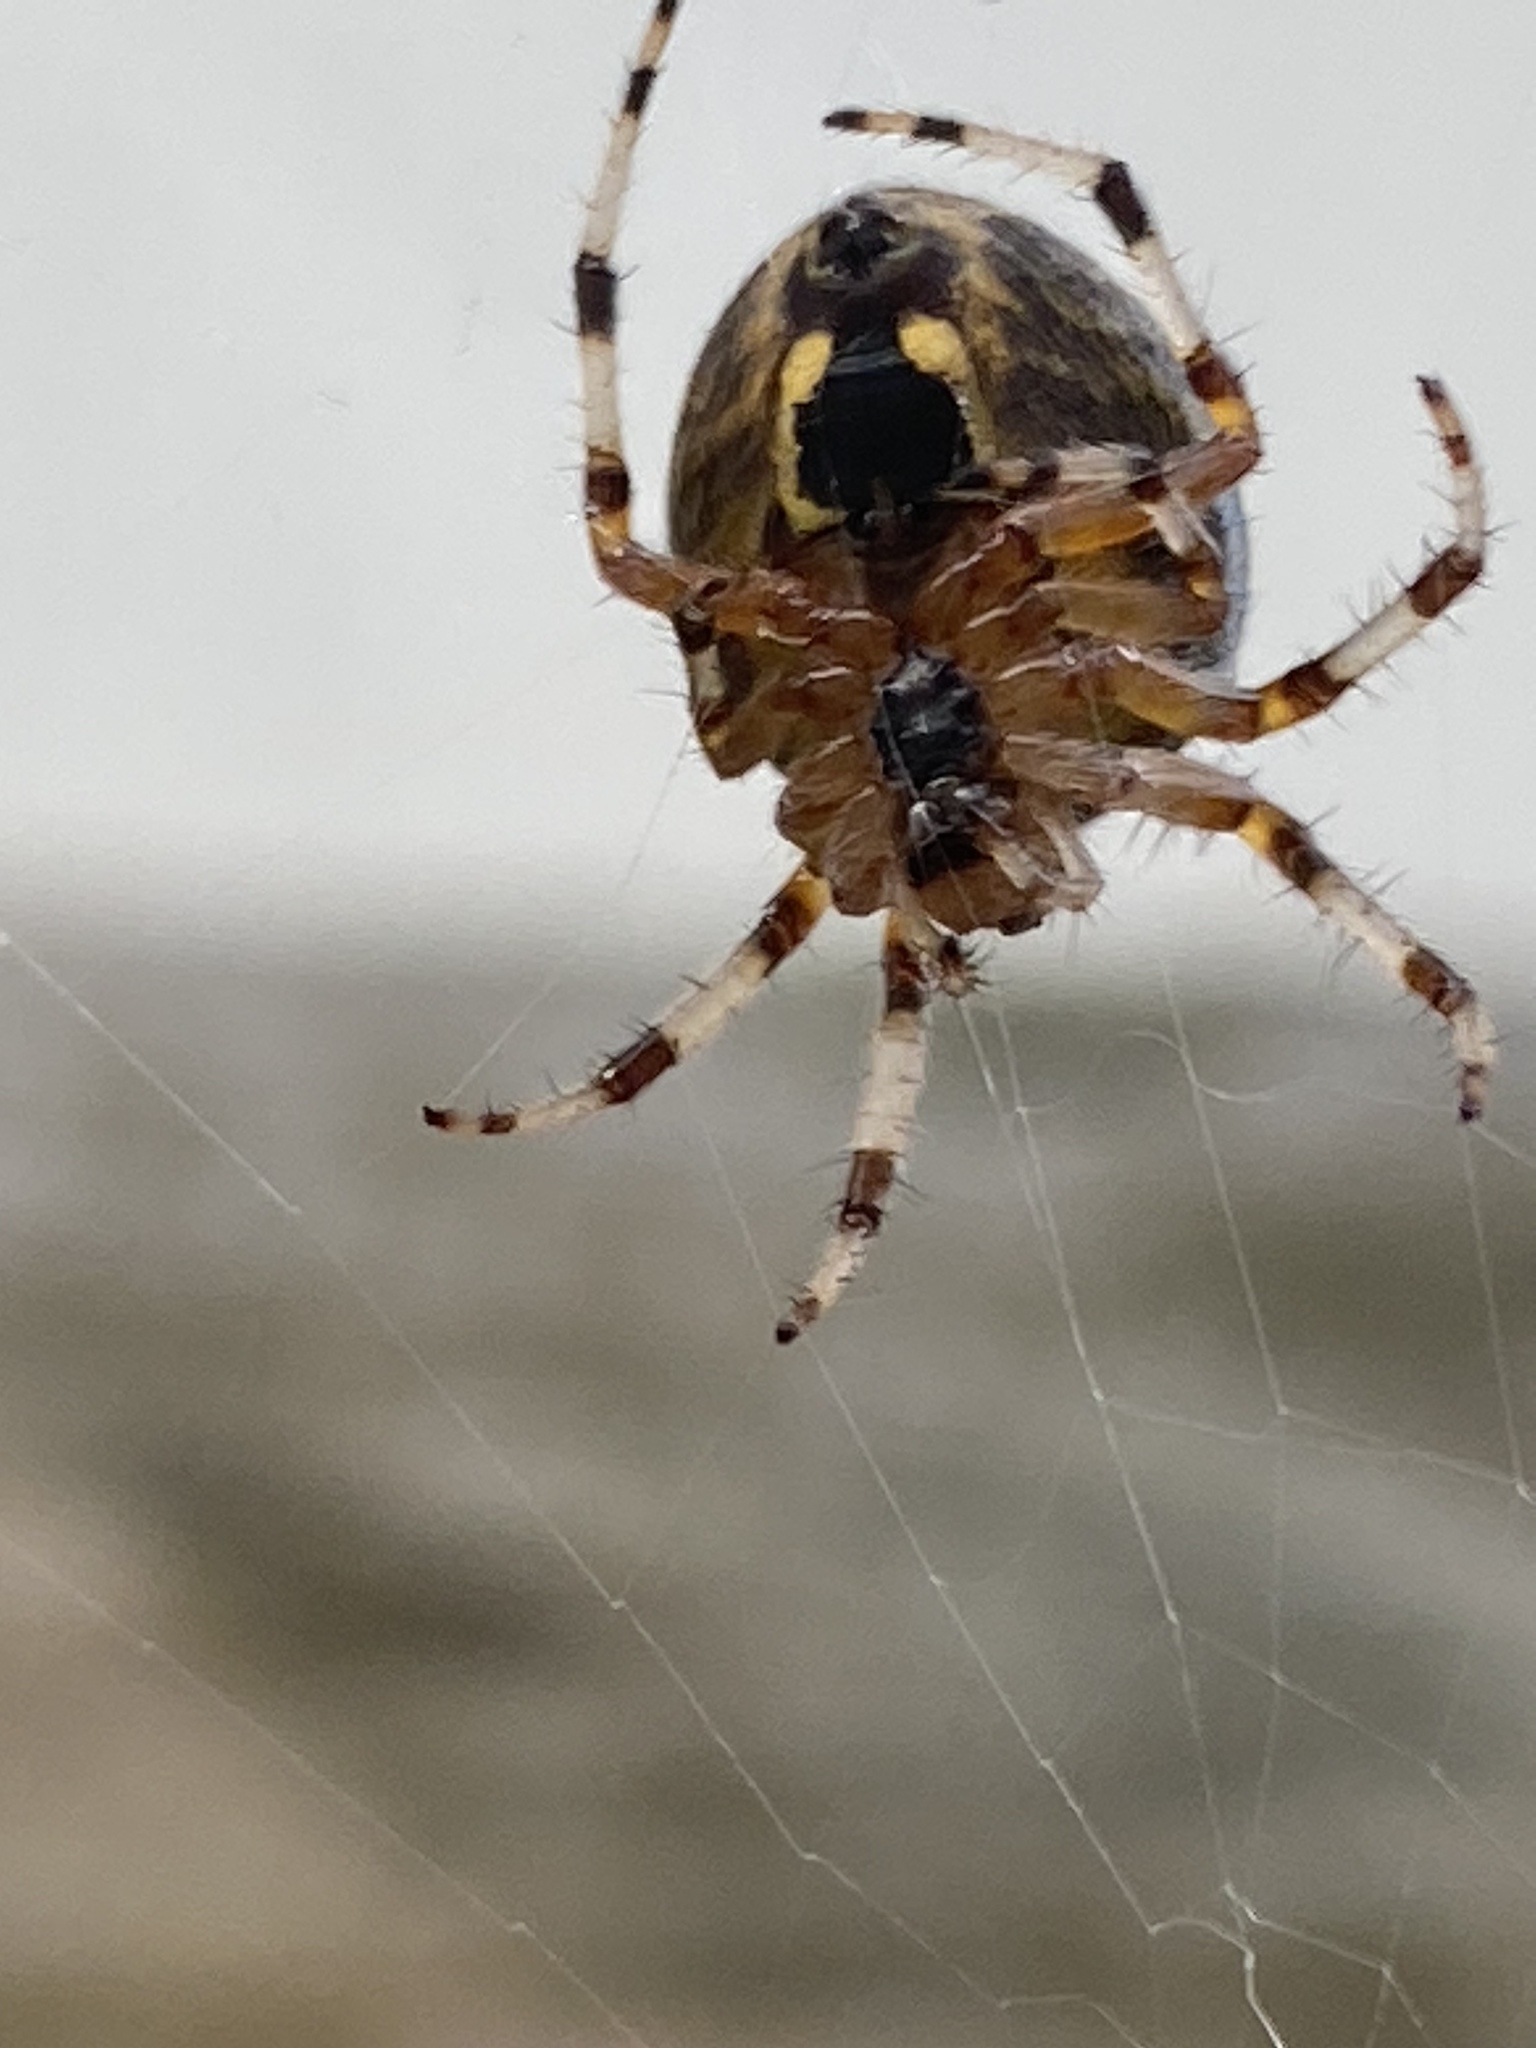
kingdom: Animalia
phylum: Arthropoda
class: Arachnida
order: Araneae
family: Araneidae
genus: Araneus
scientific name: Araneus marmoreus
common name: Marbled orbweaver
